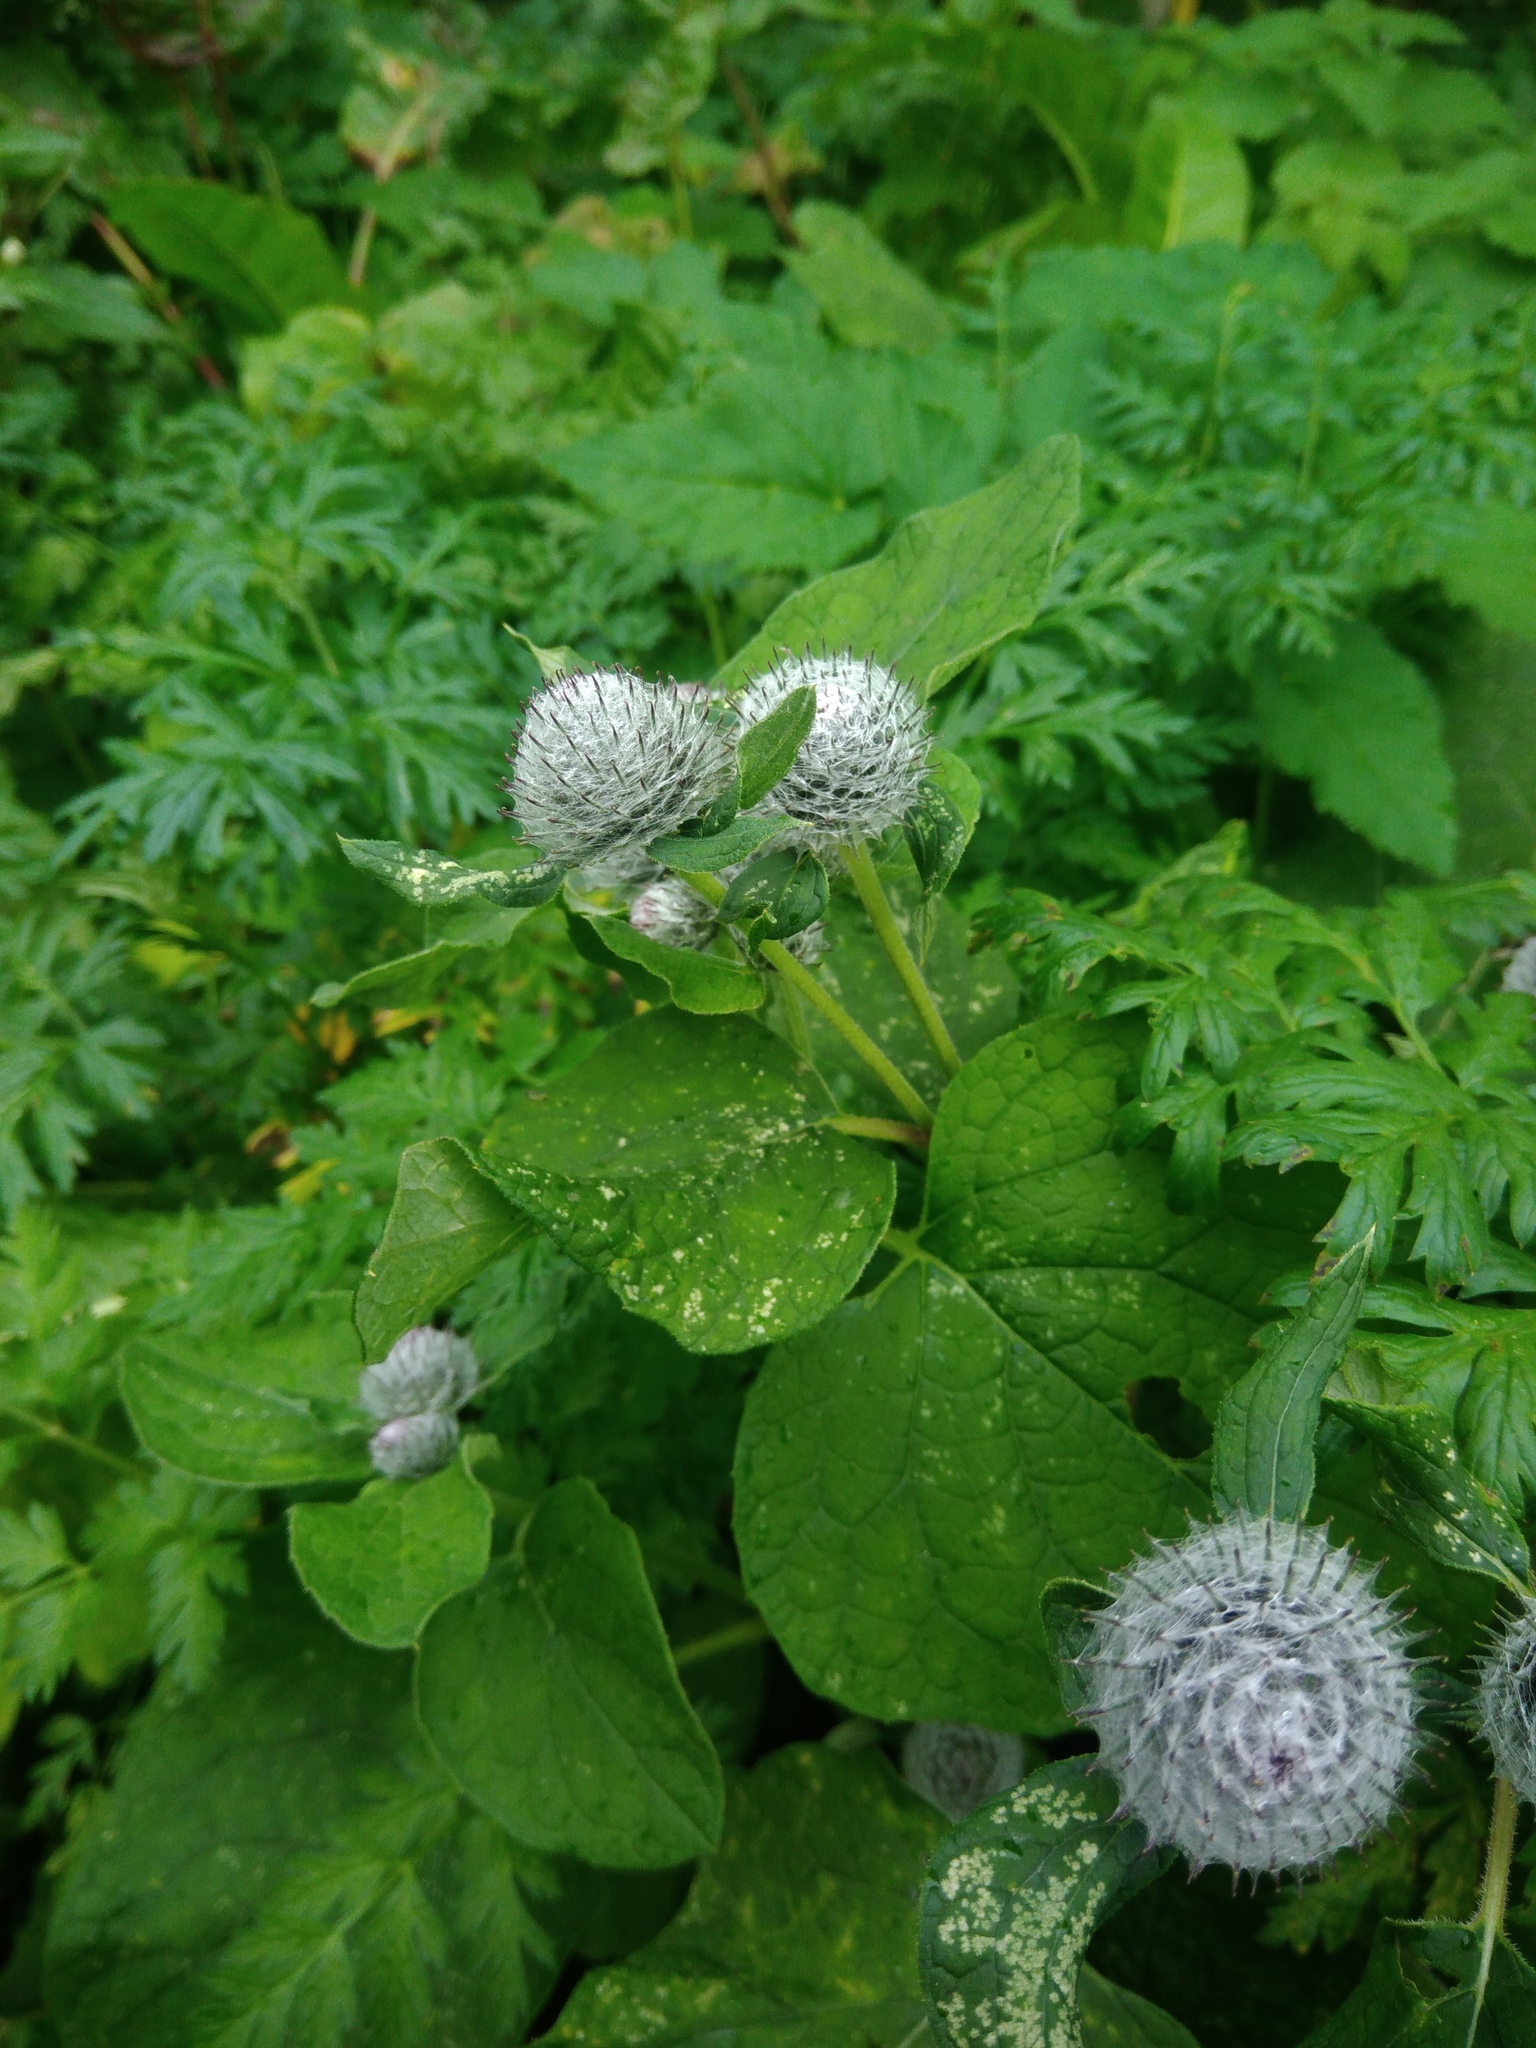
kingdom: Plantae
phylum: Tracheophyta
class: Magnoliopsida
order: Asterales
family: Asteraceae
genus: Arctium
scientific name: Arctium tomentosum
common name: Woolly burdock
